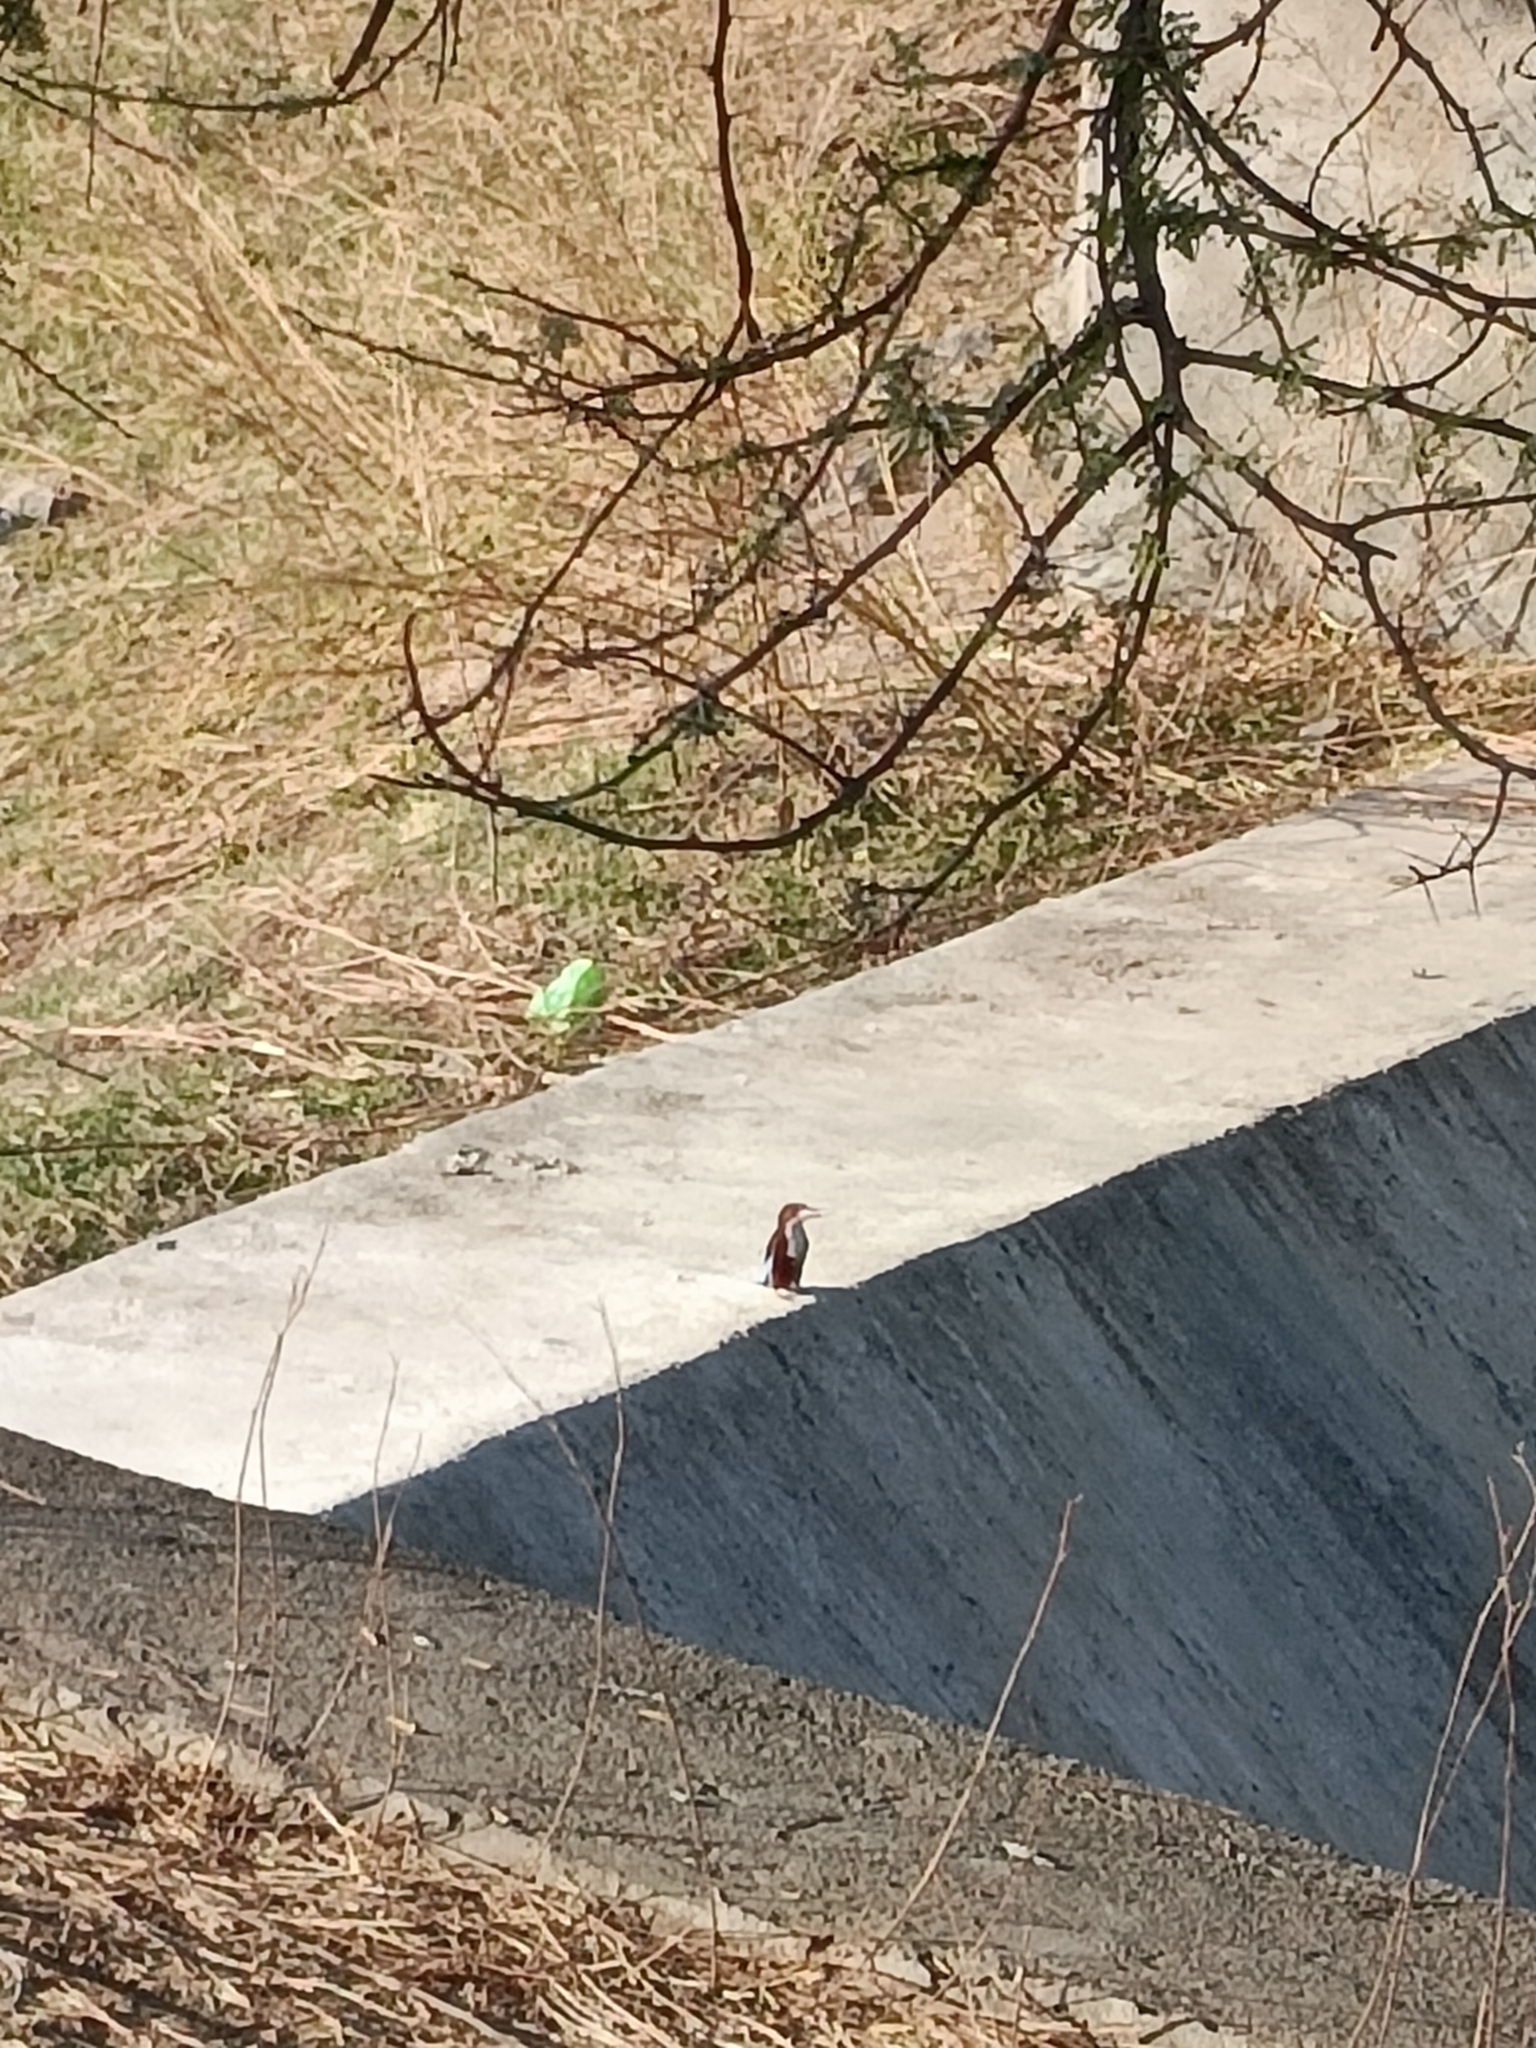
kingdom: Animalia
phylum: Chordata
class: Aves
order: Coraciiformes
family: Alcedinidae
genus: Halcyon
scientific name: Halcyon smyrnensis
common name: White-throated kingfisher
